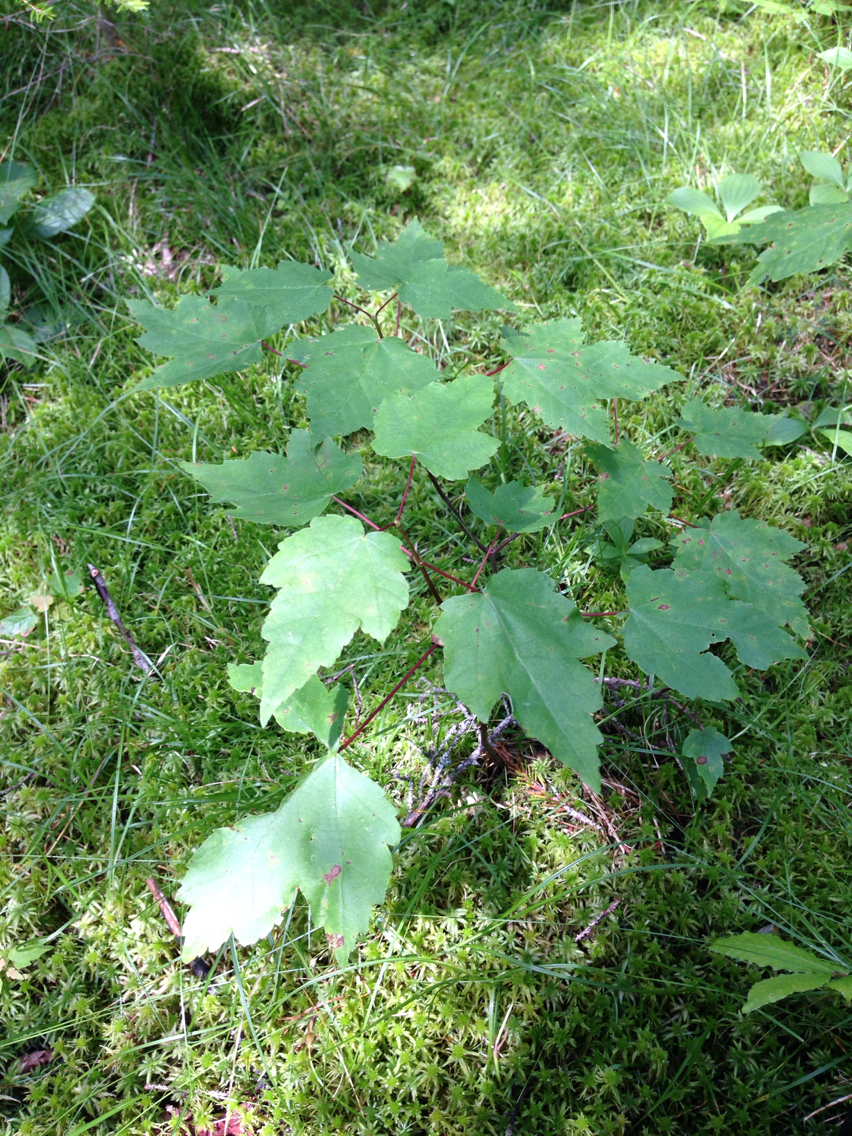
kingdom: Plantae
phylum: Tracheophyta
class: Magnoliopsida
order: Sapindales
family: Sapindaceae
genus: Acer
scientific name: Acer rubrum
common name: Red maple
